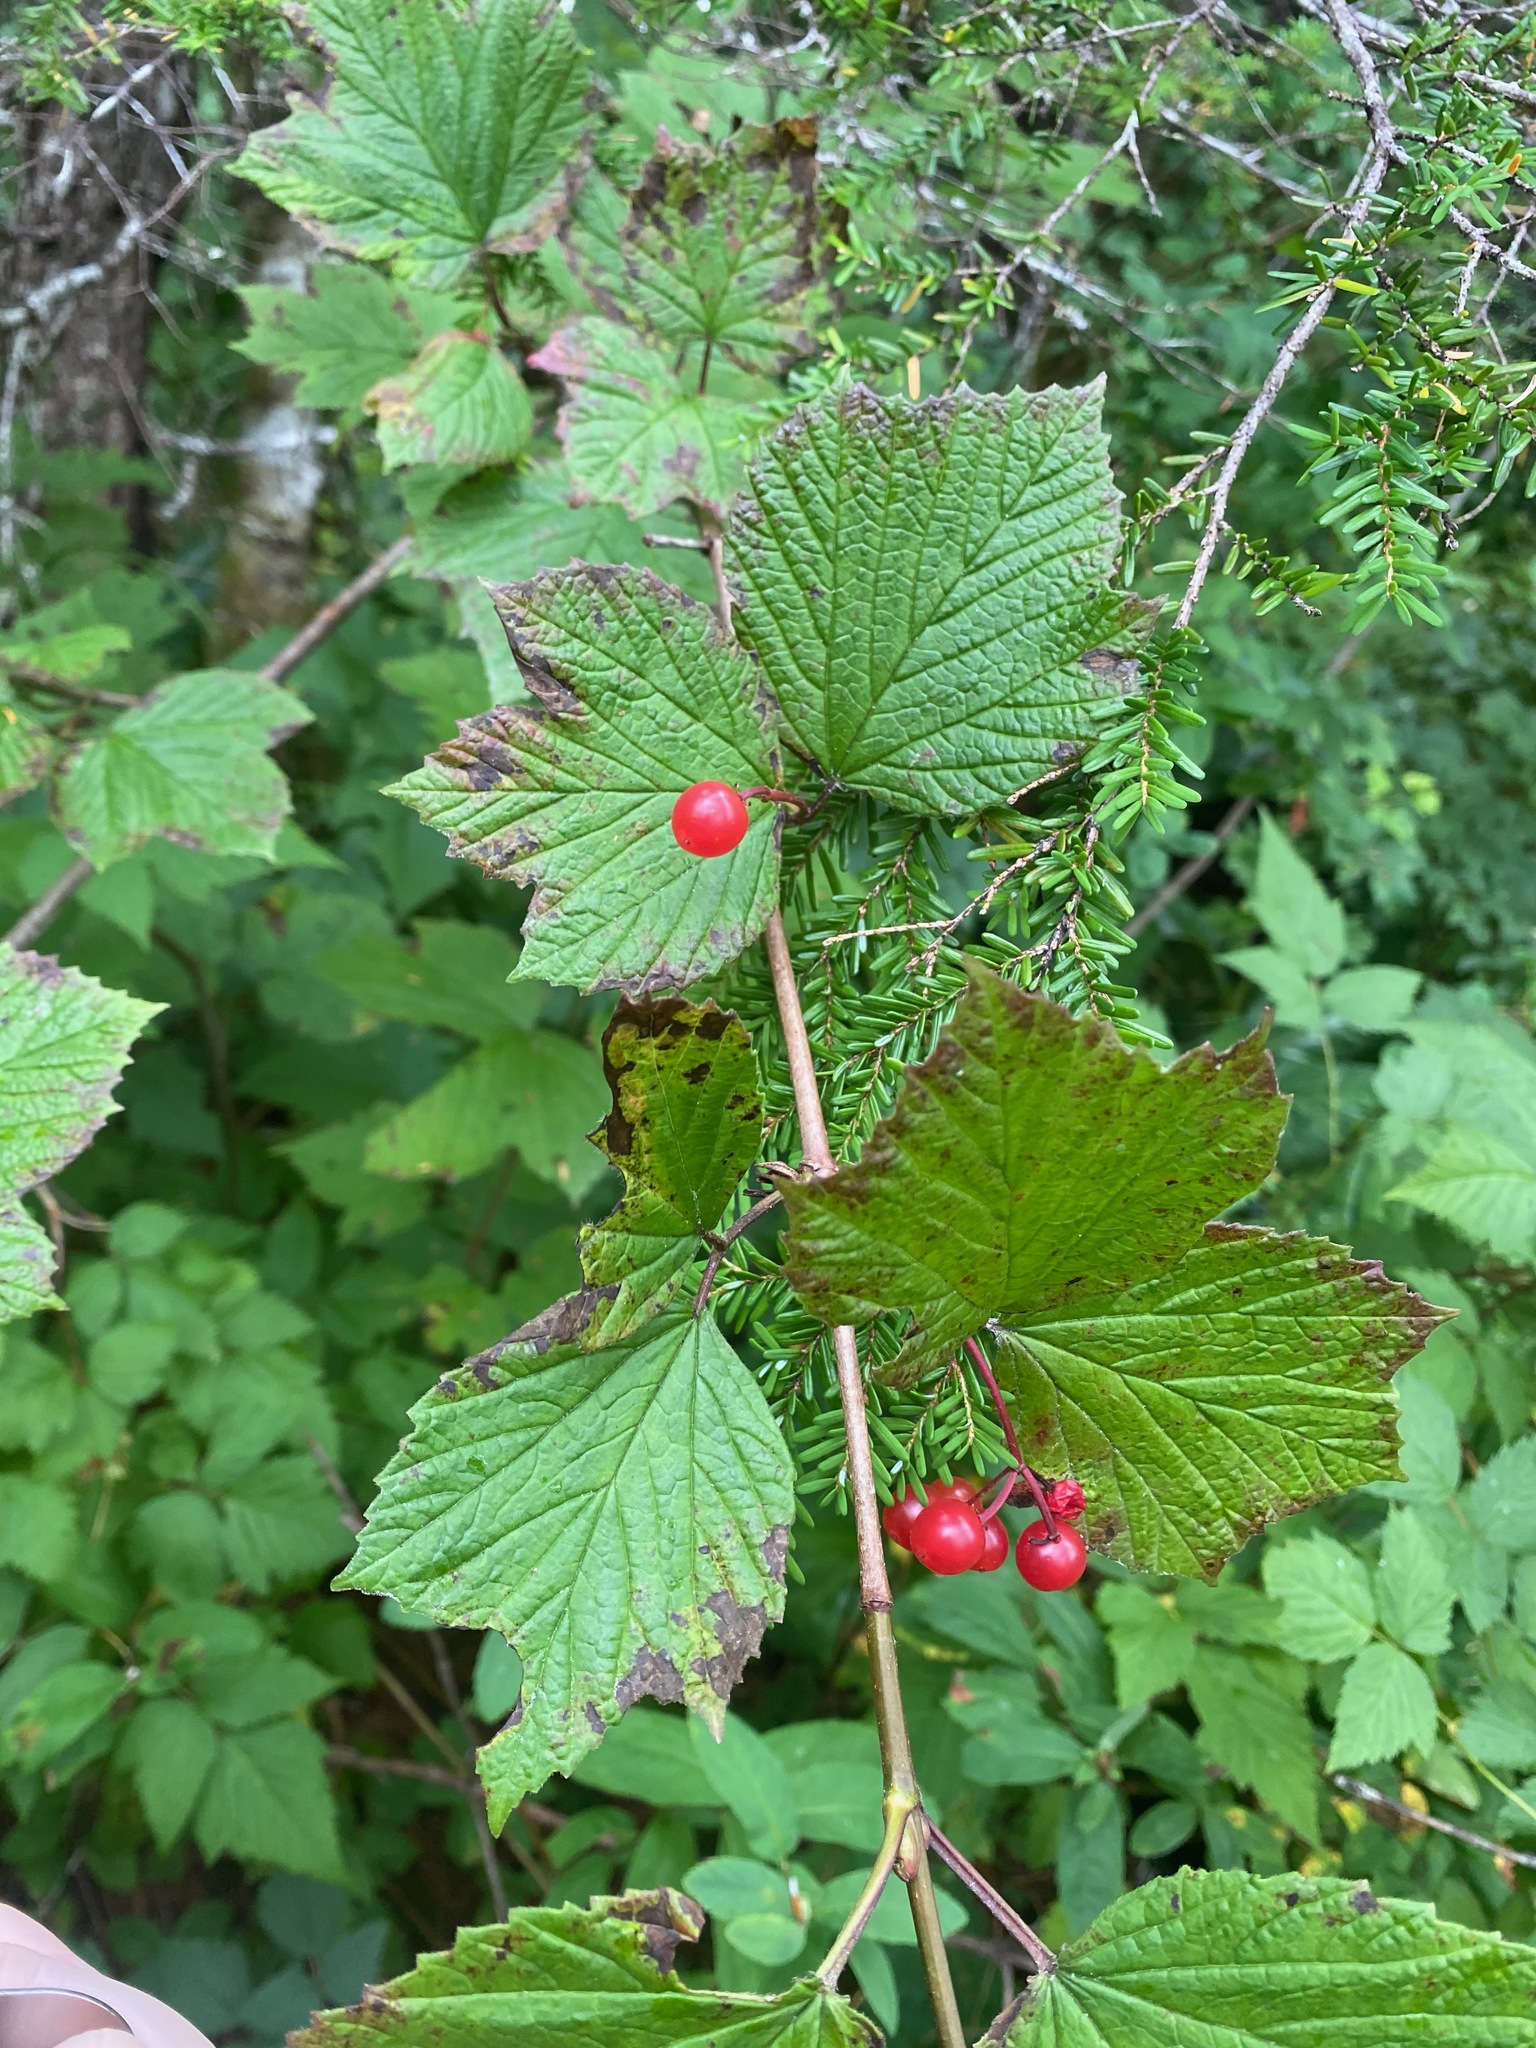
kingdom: Plantae
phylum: Tracheophyta
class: Magnoliopsida
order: Dipsacales
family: Viburnaceae
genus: Viburnum
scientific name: Viburnum edule
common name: Mooseberry
